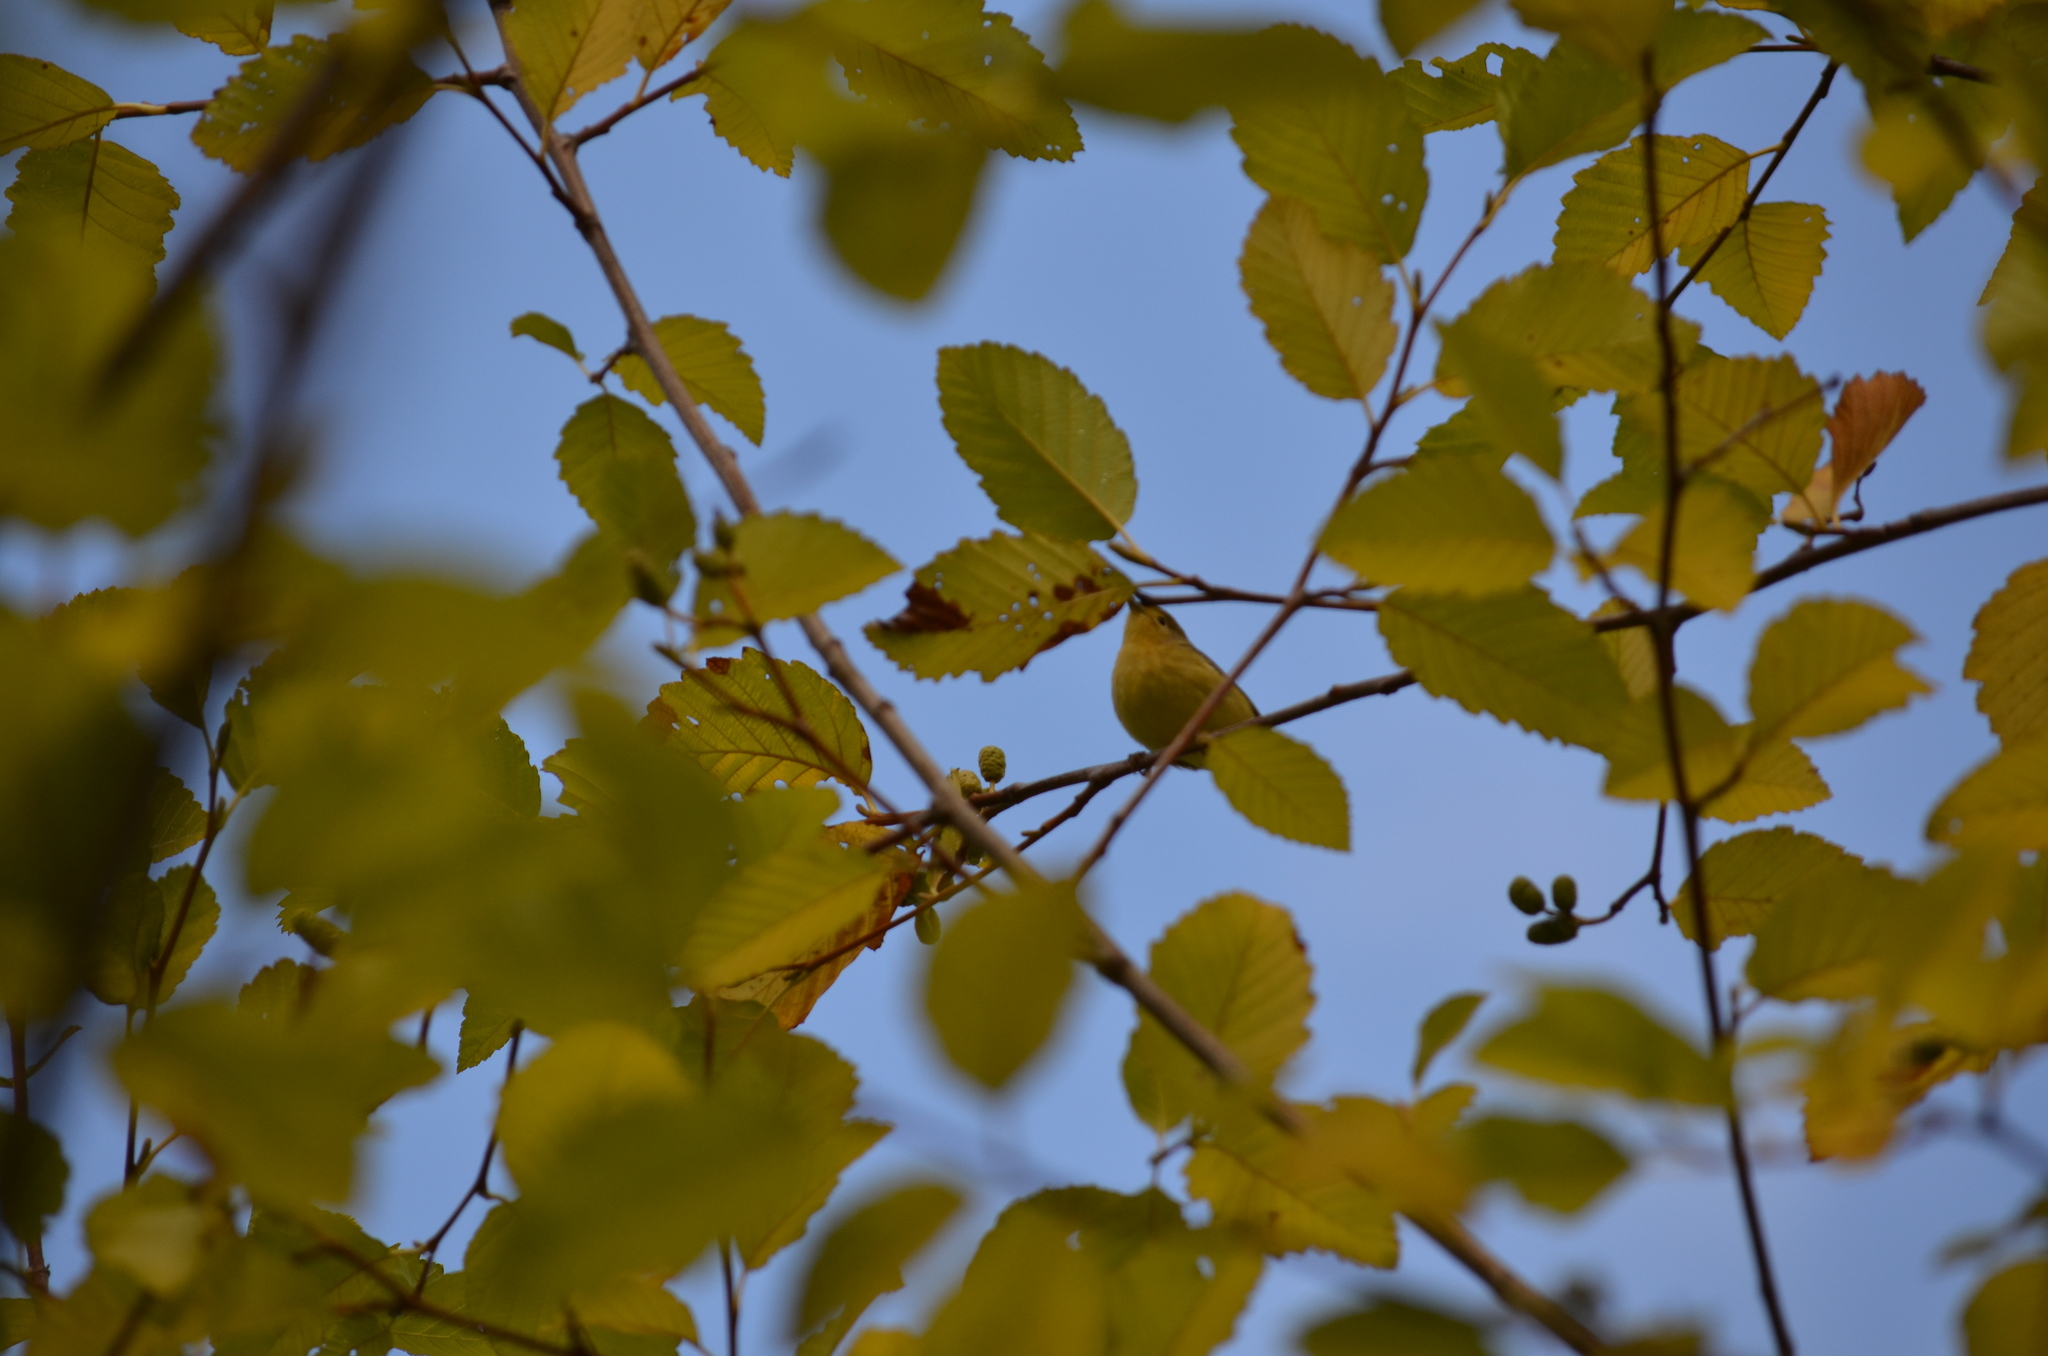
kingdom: Animalia
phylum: Chordata
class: Aves
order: Passeriformes
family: Parulidae
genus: Setophaga
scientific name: Setophaga petechia
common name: Yellow warbler
